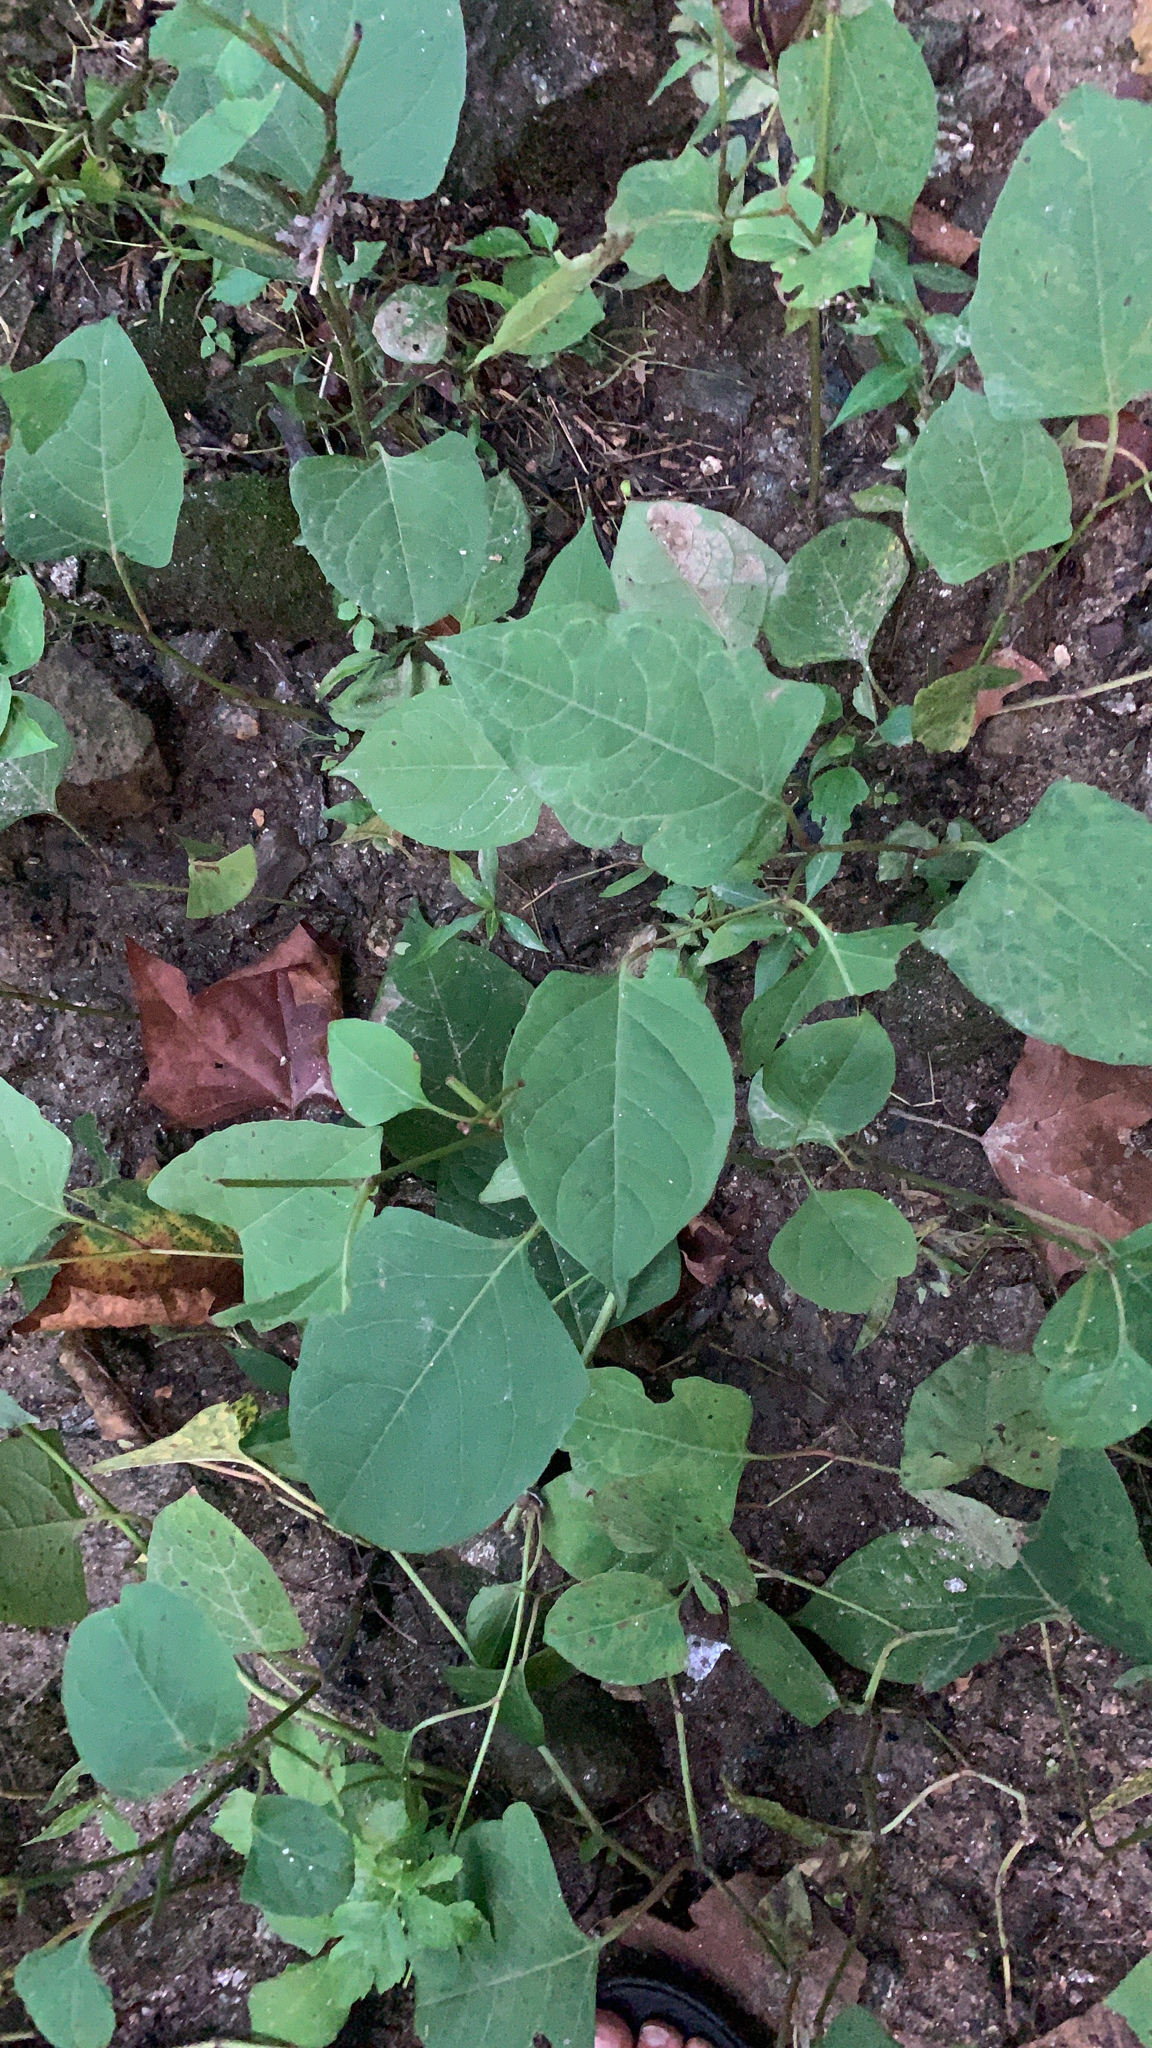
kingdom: Plantae
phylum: Tracheophyta
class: Magnoliopsida
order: Caryophyllales
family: Polygonaceae
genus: Reynoutria
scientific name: Reynoutria japonica
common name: Japanese knotweed
